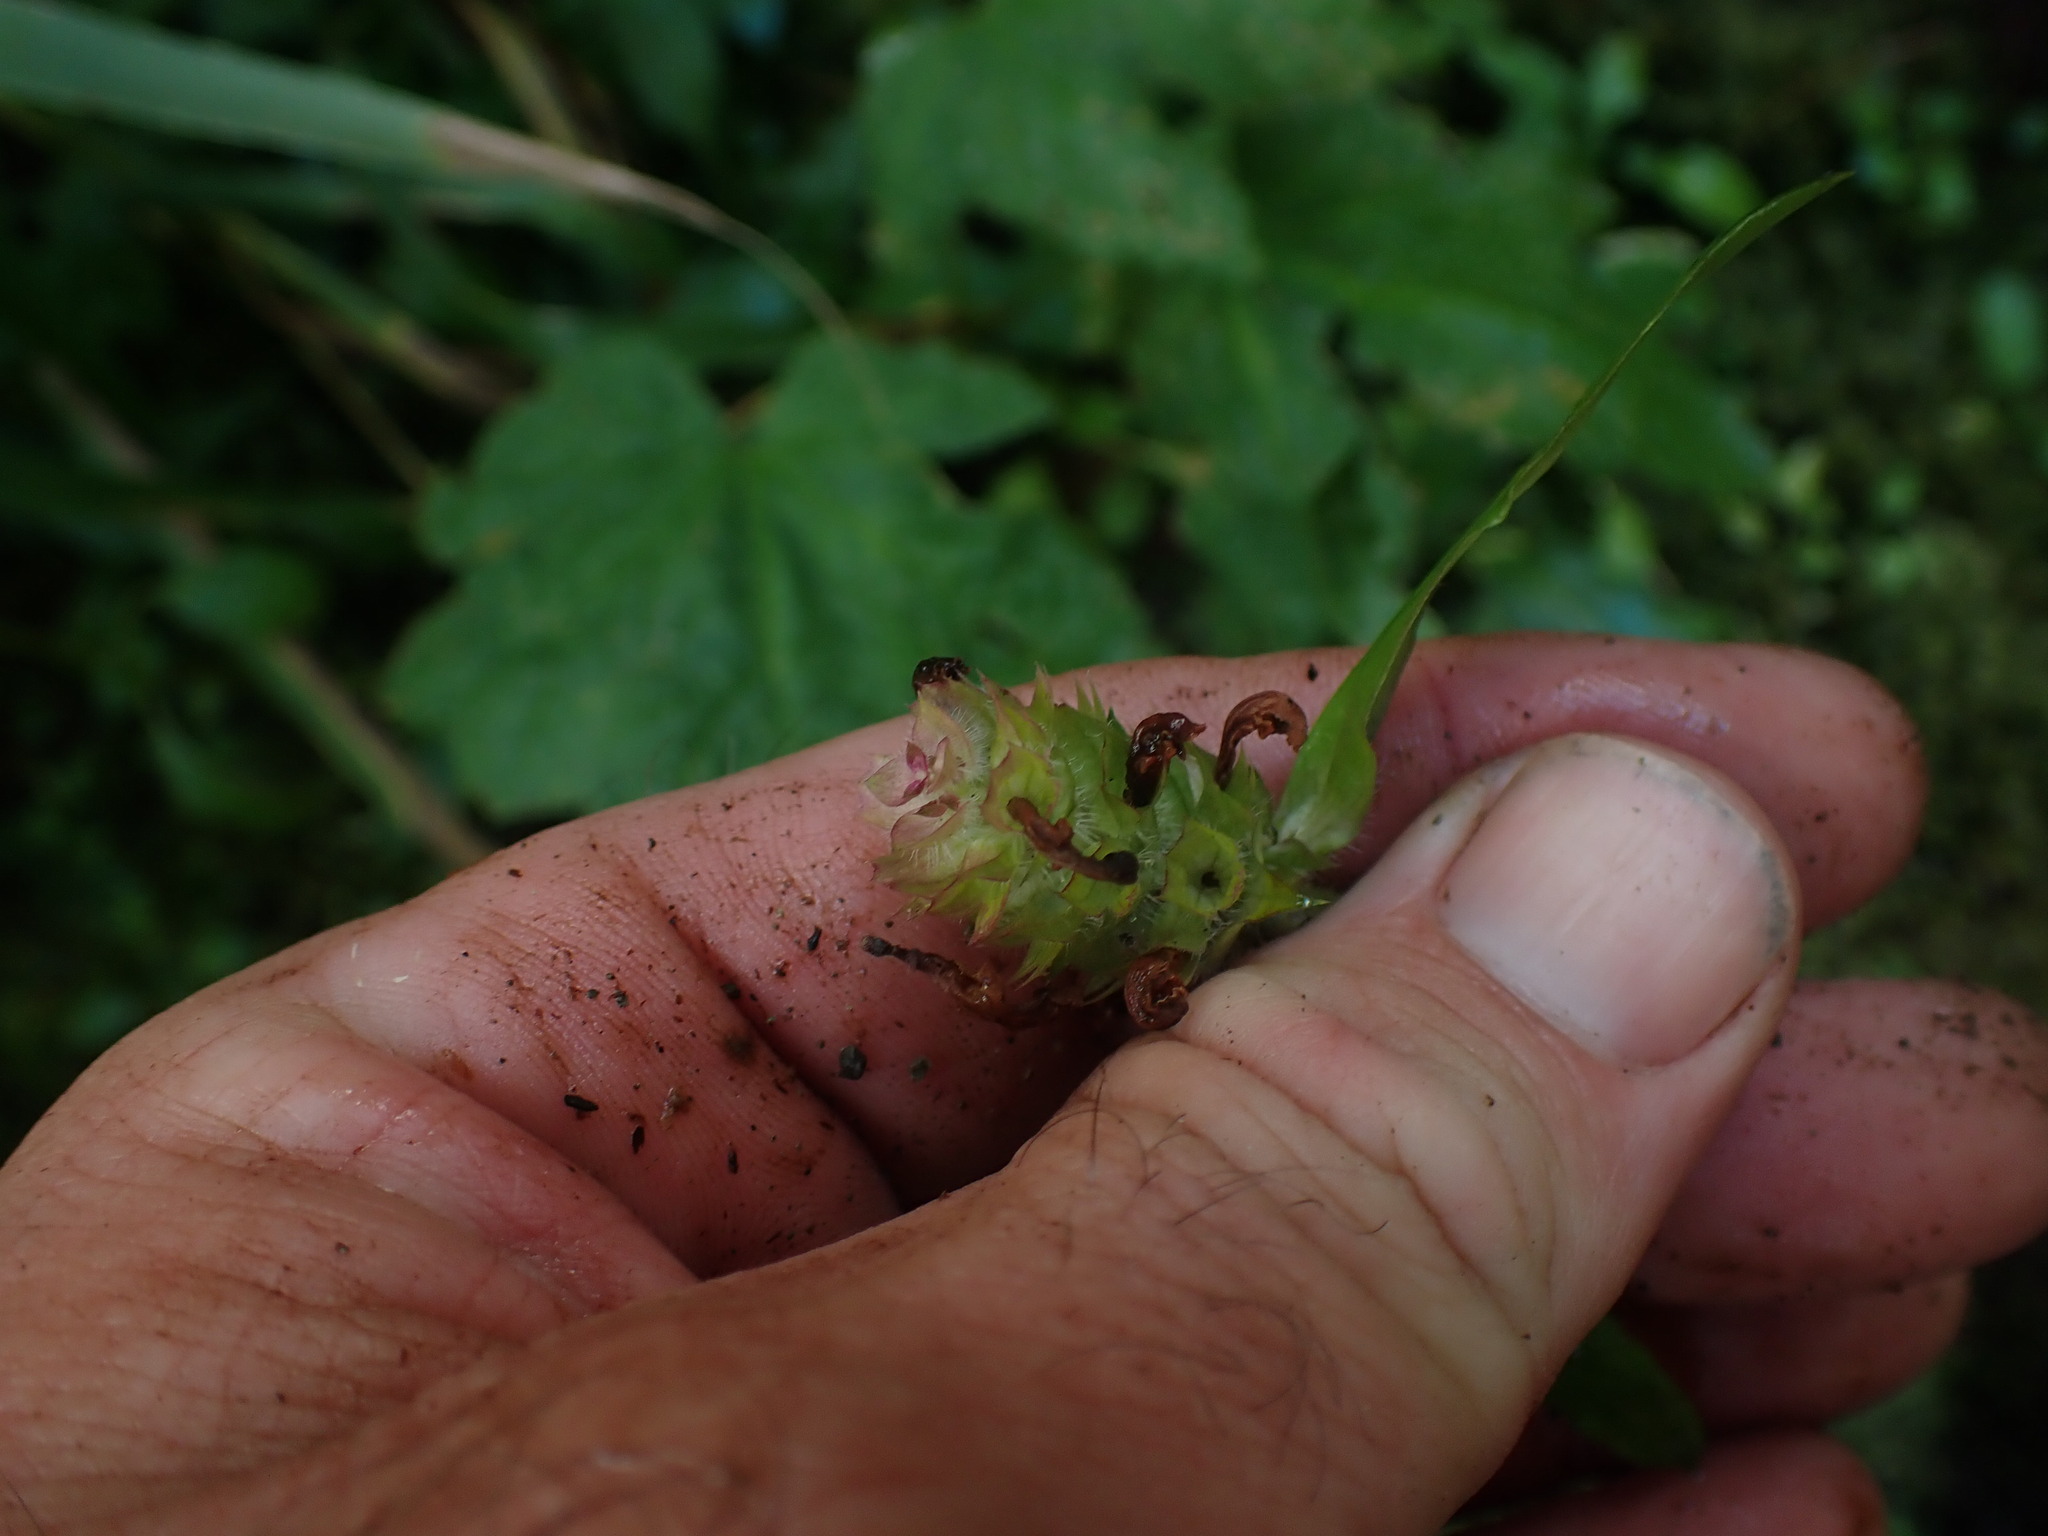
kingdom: Plantae
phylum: Tracheophyta
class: Magnoliopsida
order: Lamiales
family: Lamiaceae
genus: Prunella
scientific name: Prunella vulgaris
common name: Heal-all
